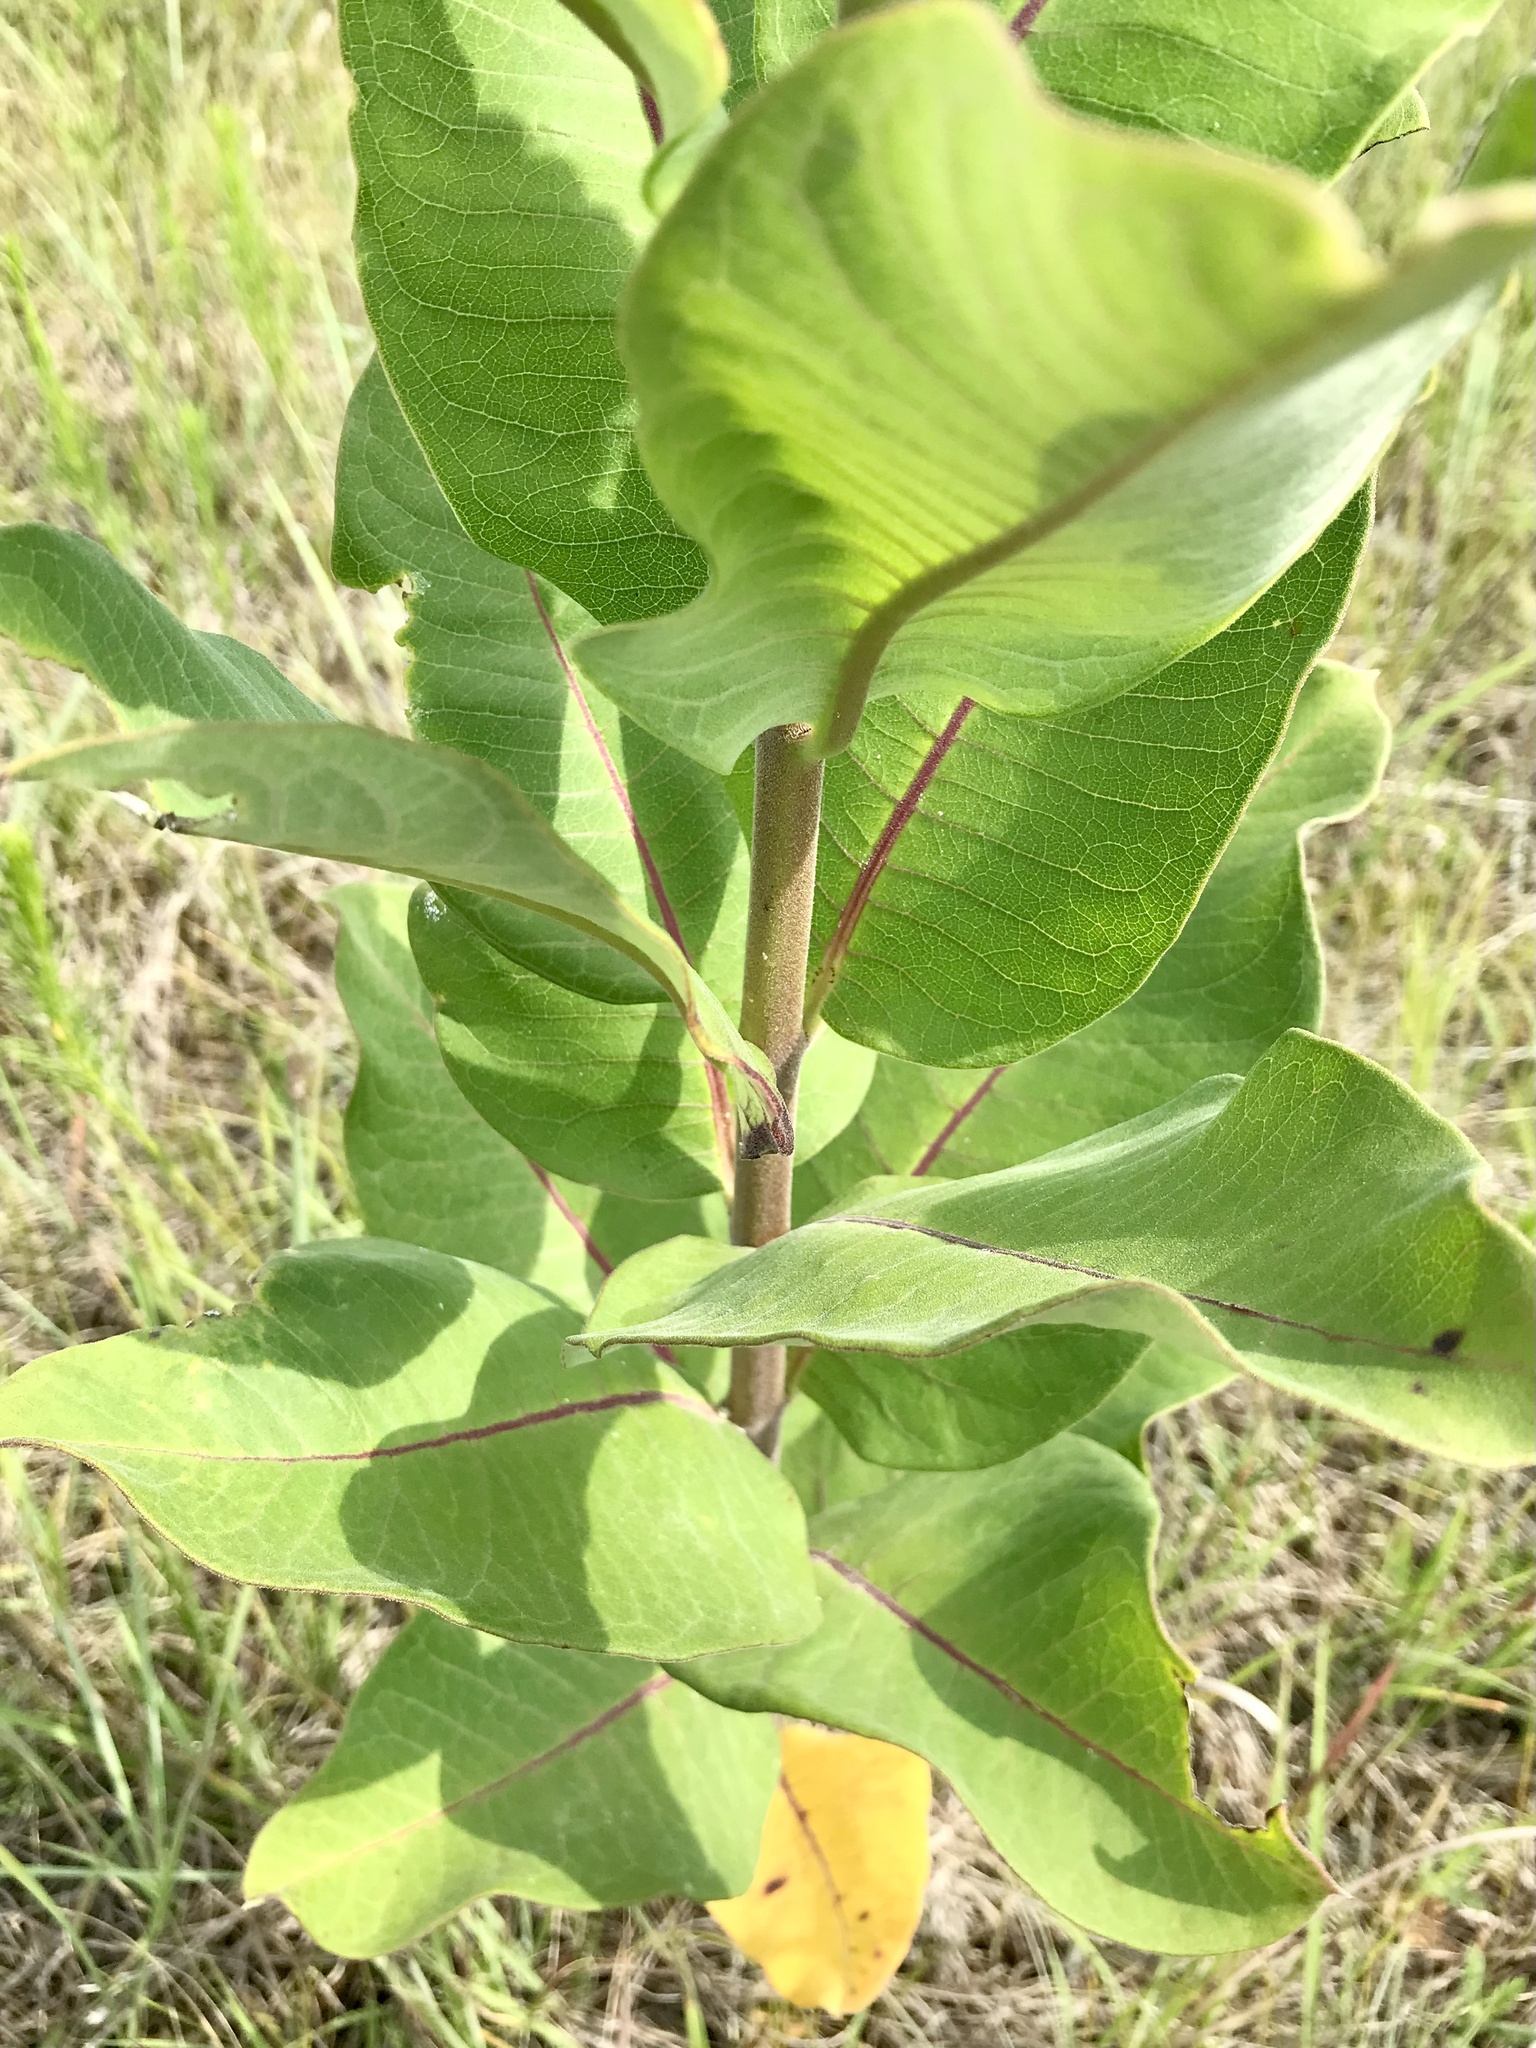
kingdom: Plantae
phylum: Tracheophyta
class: Magnoliopsida
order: Gentianales
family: Apocynaceae
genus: Asclepias
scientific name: Asclepias syriaca
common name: Common milkweed
